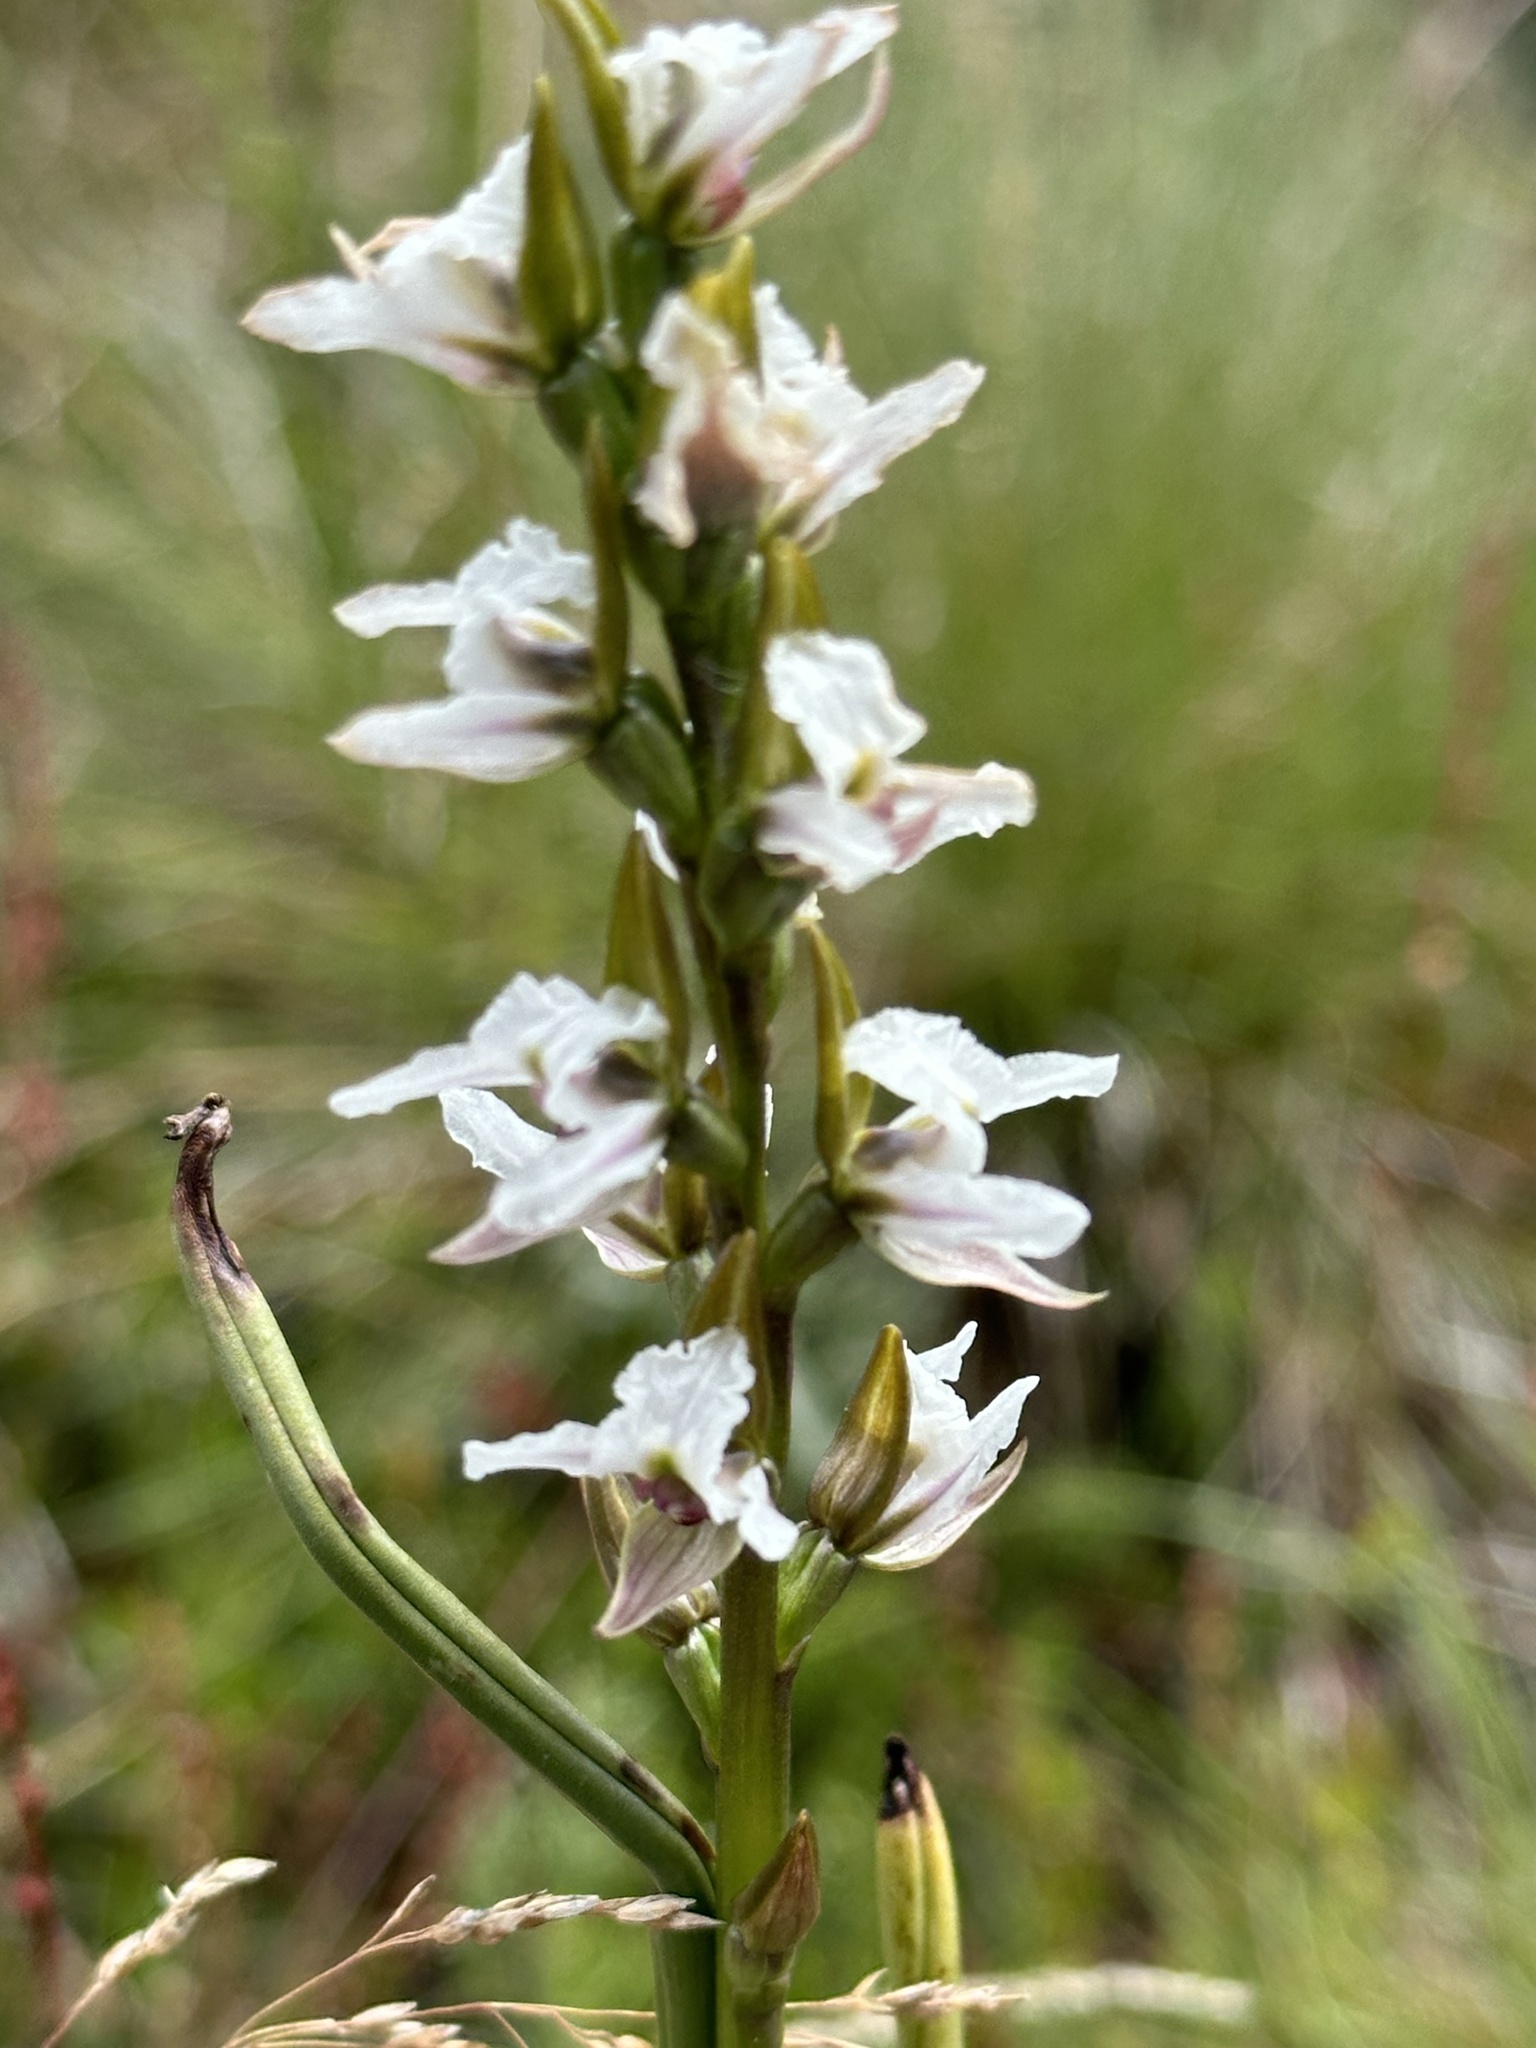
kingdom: Plantae
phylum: Tracheophyta
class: Liliopsida
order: Asparagales
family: Orchidaceae
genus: Prasophyllum
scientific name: Prasophyllum suttonii
